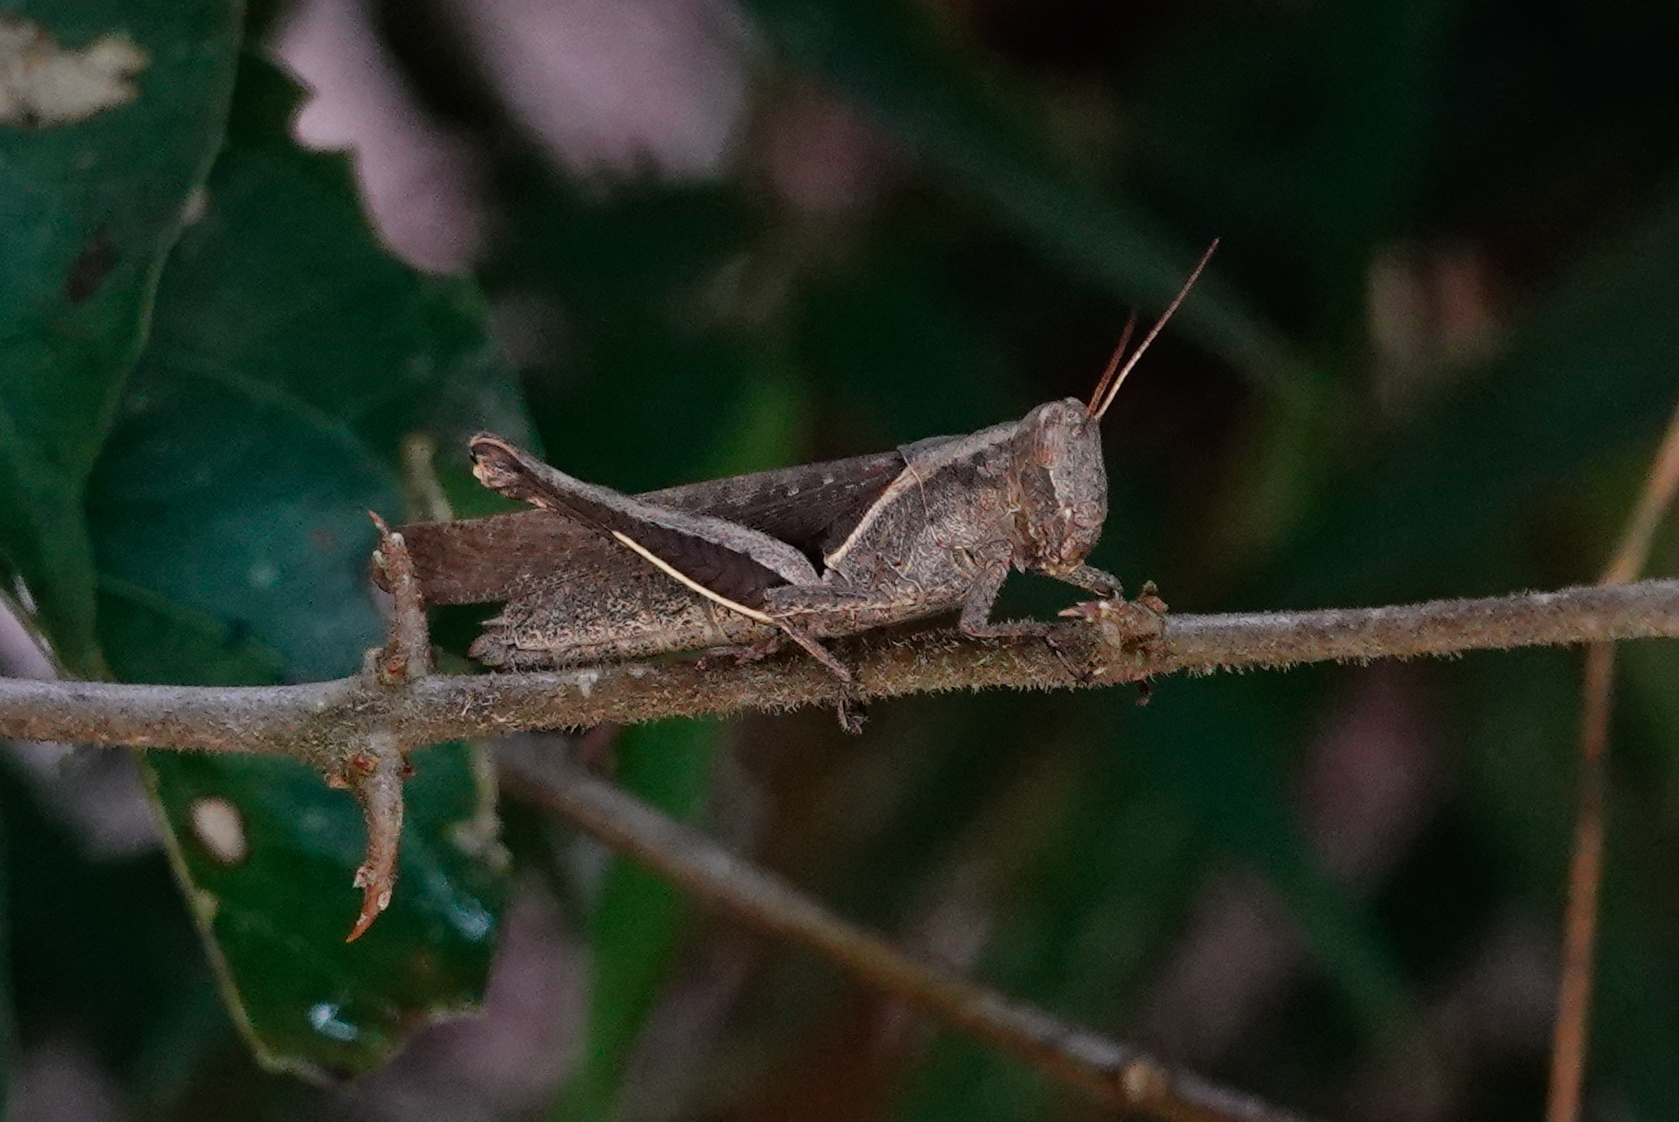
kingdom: Animalia
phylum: Arthropoda
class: Insecta
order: Orthoptera
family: Acrididae
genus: Abracris
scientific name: Abracris flavolineata
